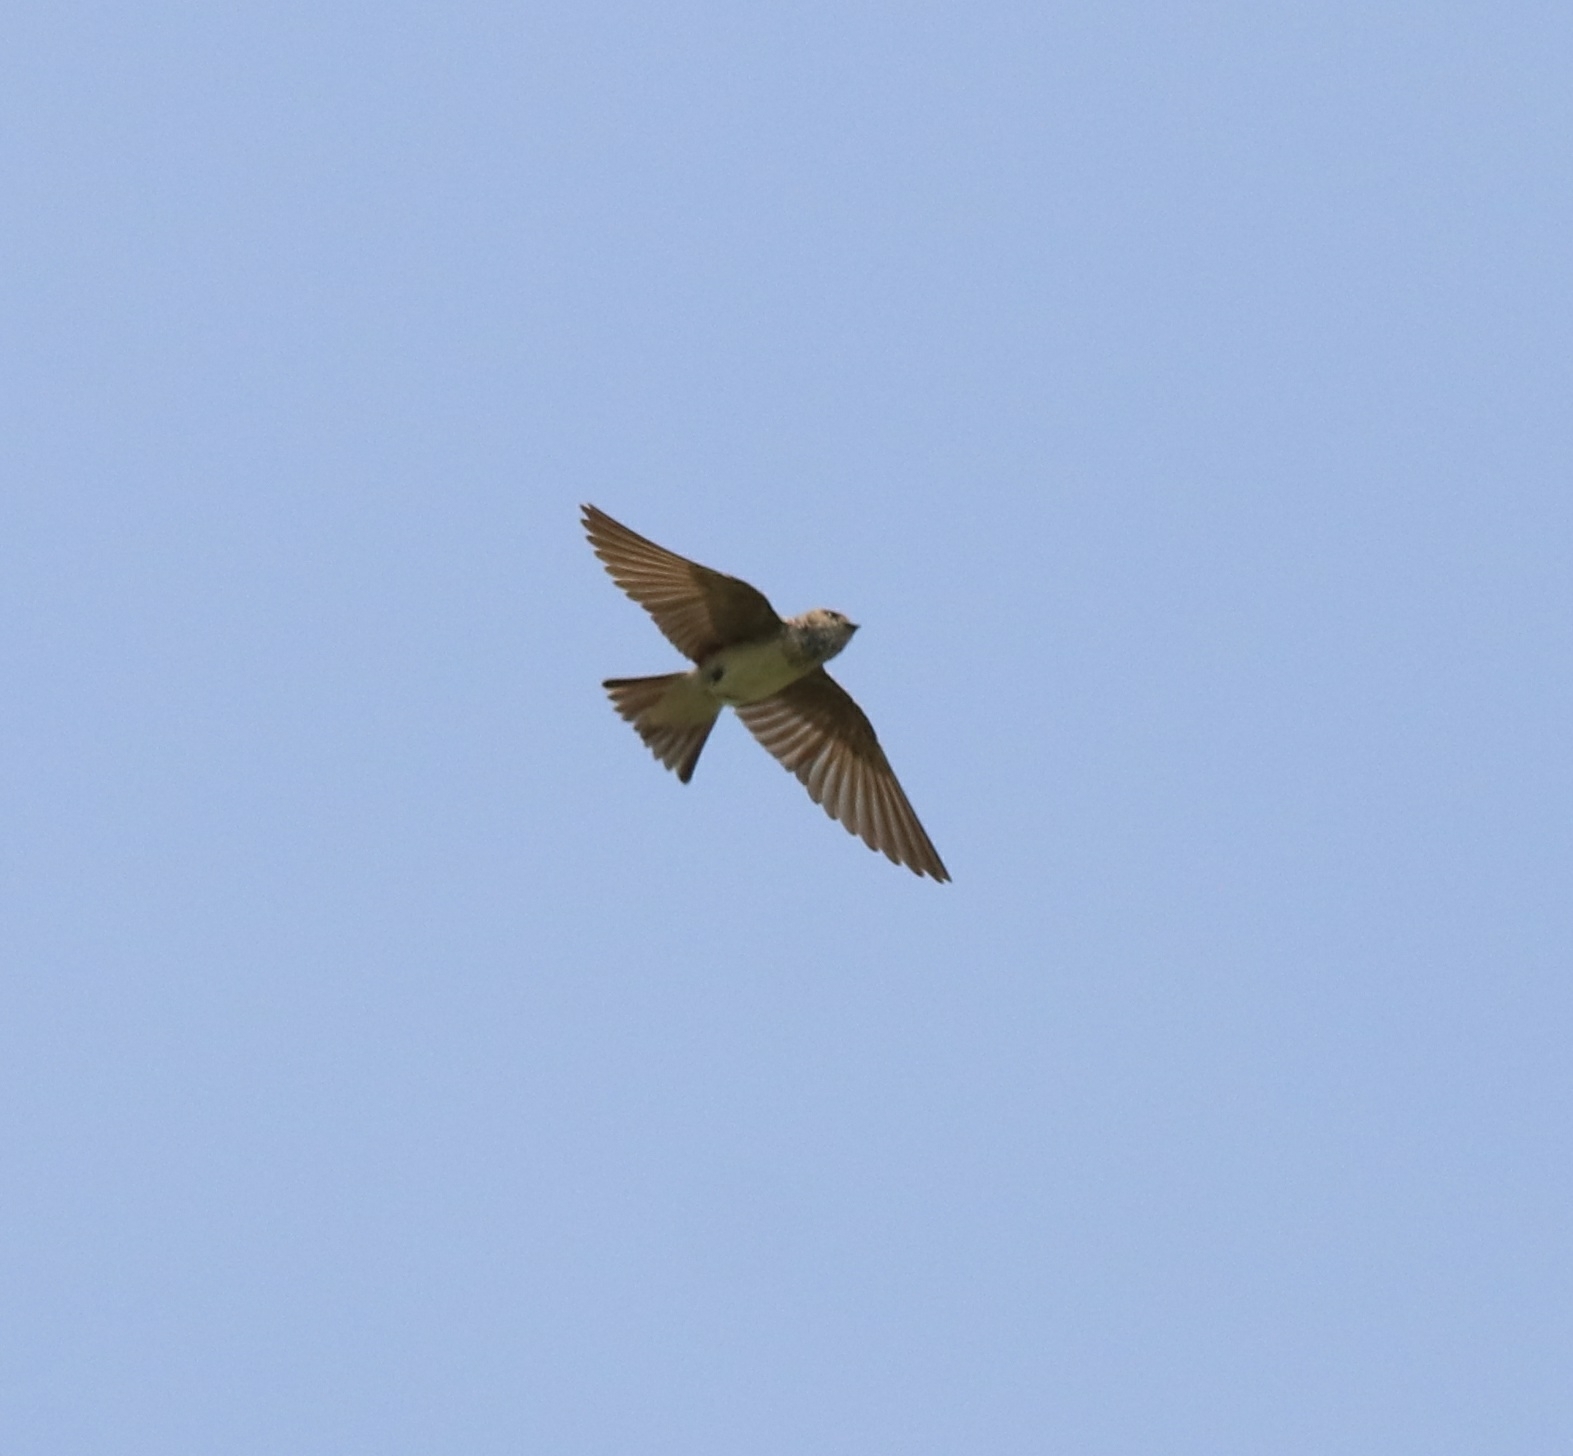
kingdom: Animalia
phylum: Chordata
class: Aves
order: Passeriformes
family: Hirundinidae
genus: Petrochelidon
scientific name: Petrochelidon fluvicola
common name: Streak-throated swallow
